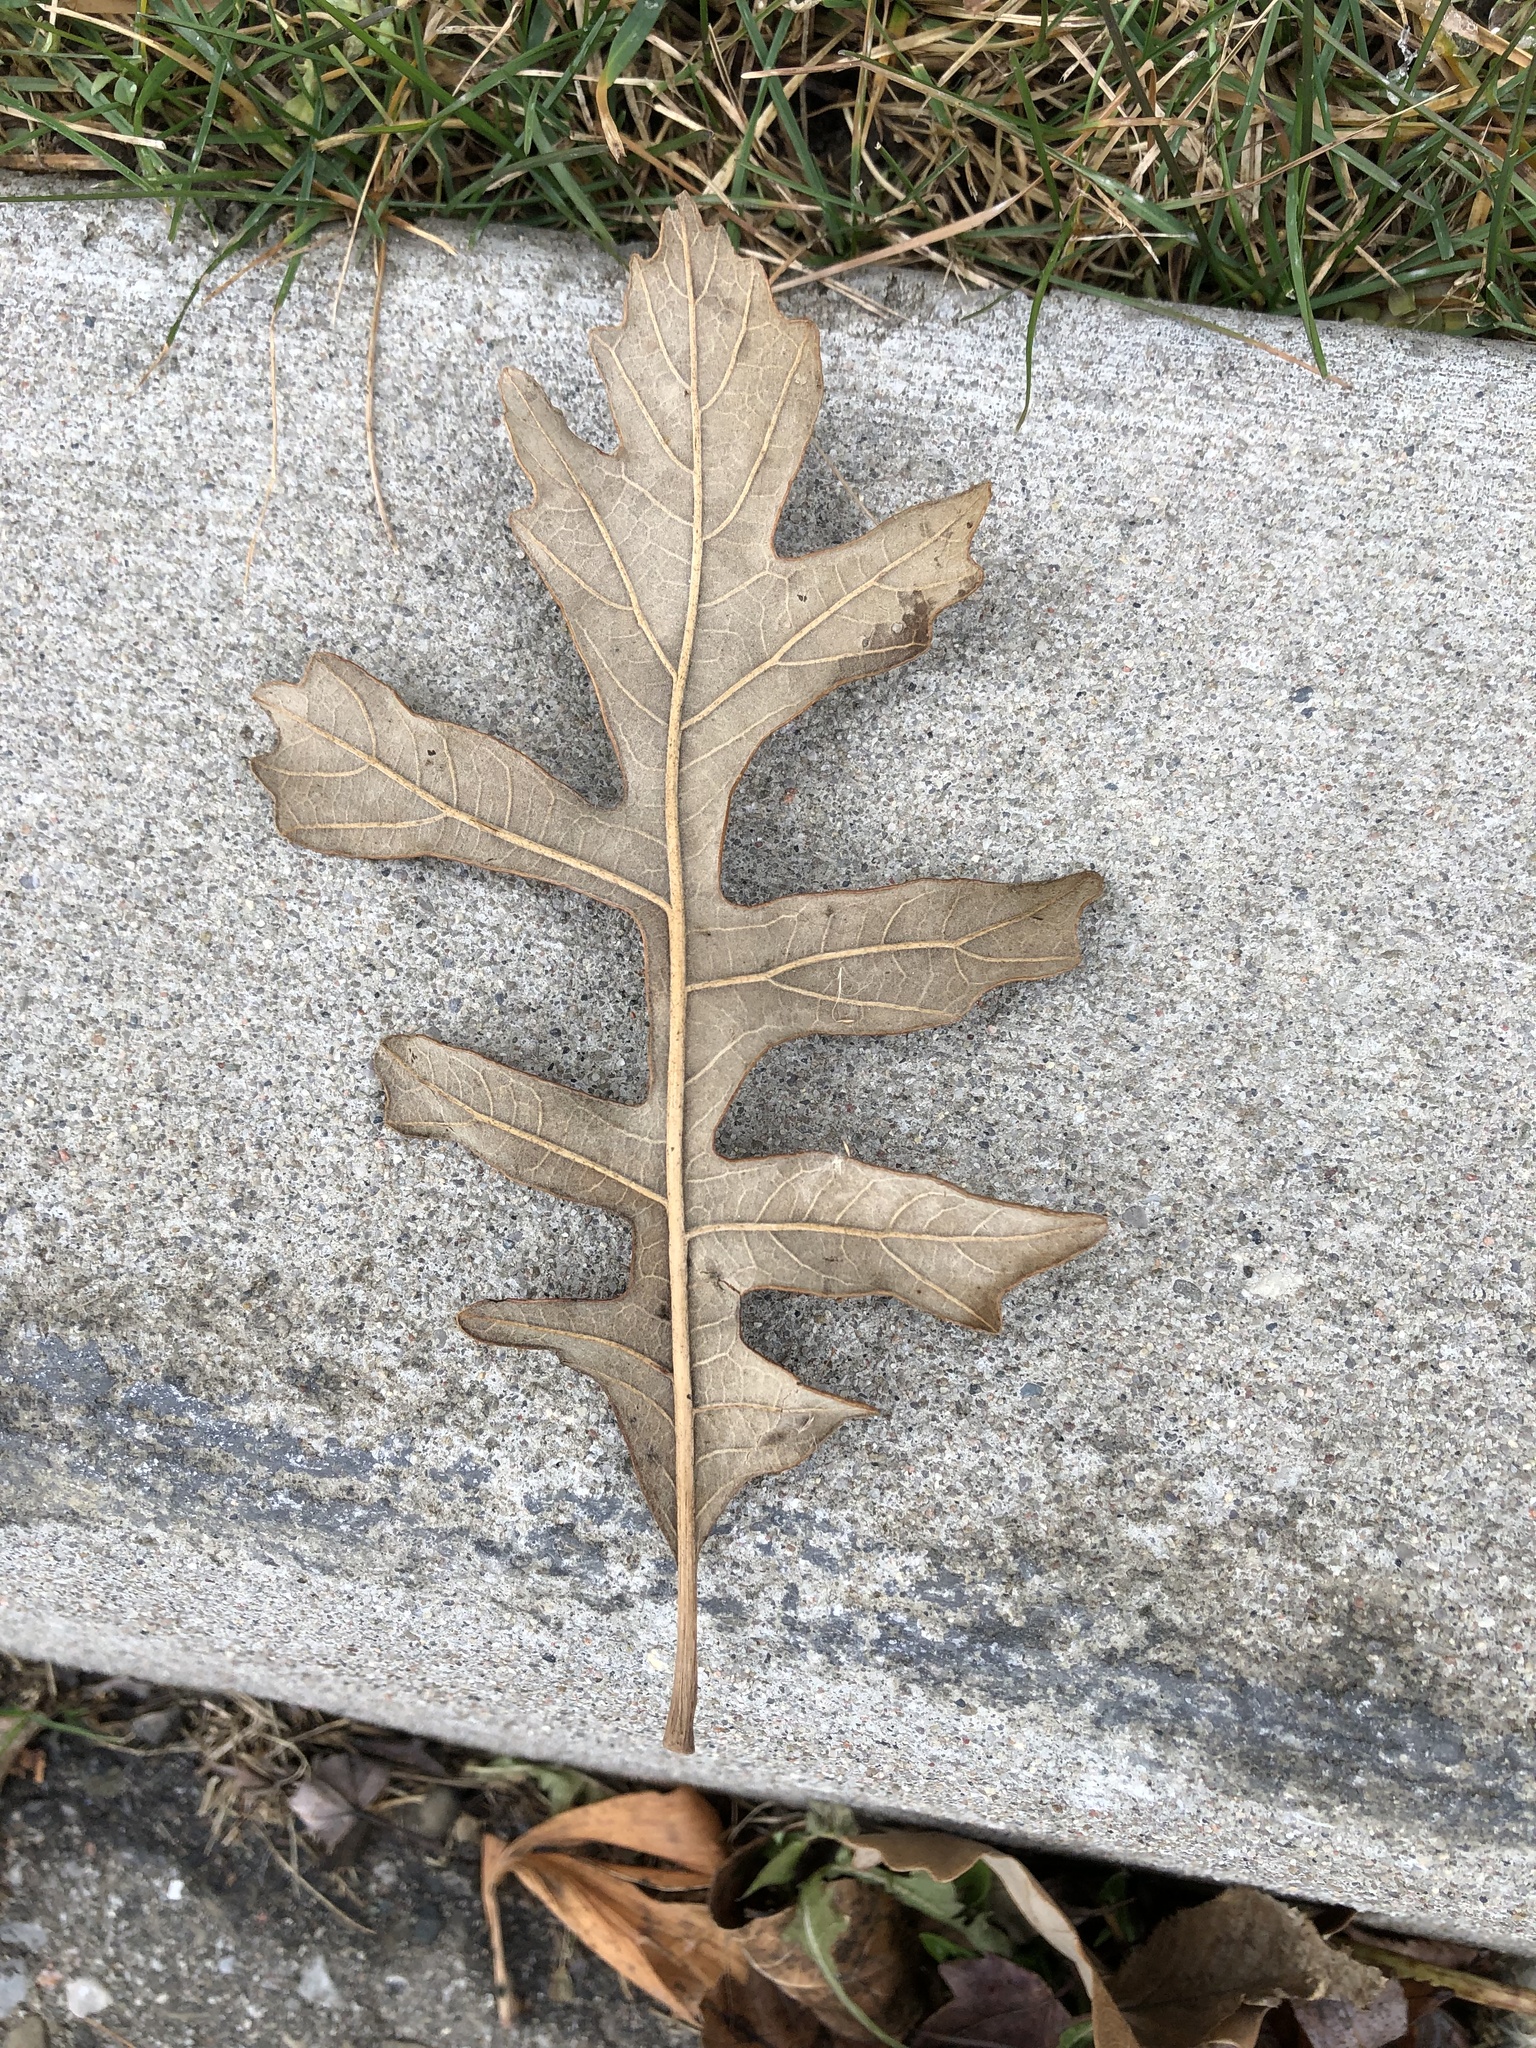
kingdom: Plantae
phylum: Tracheophyta
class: Magnoliopsida
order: Fagales
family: Fagaceae
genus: Quercus
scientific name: Quercus macrocarpa
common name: Bur oak
